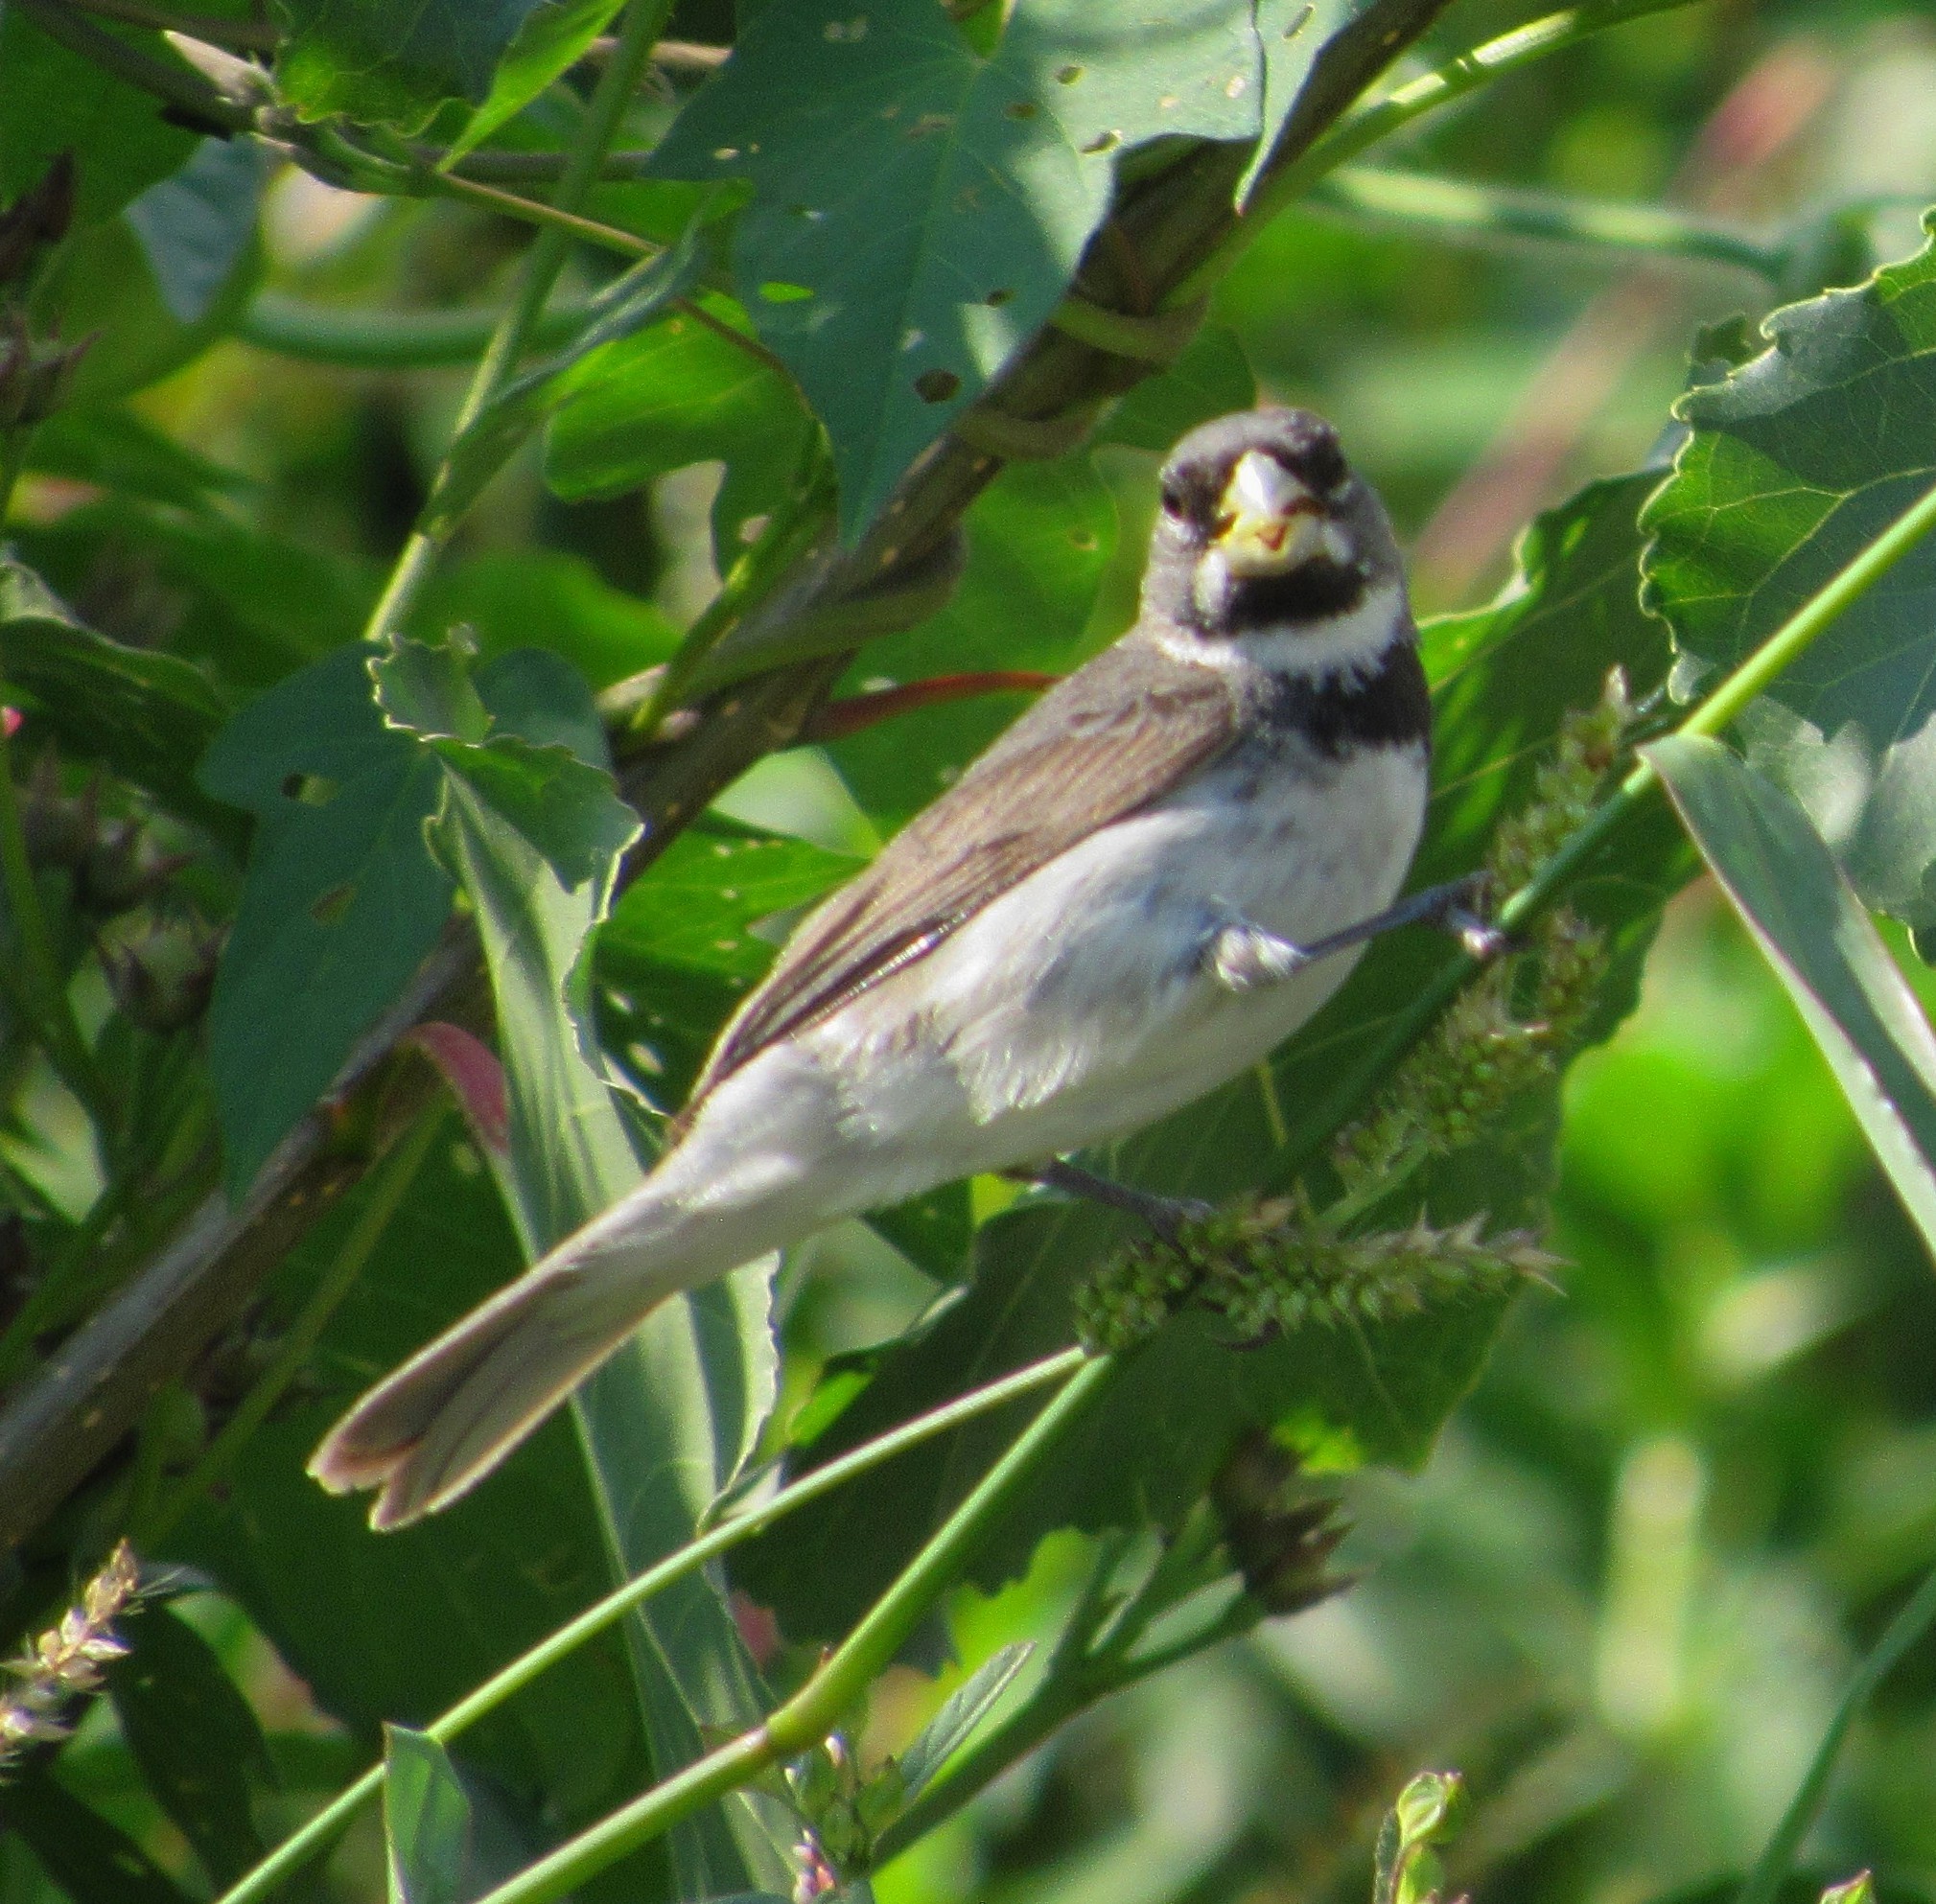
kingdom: Animalia
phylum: Chordata
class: Aves
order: Passeriformes
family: Thraupidae
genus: Sporophila
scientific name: Sporophila caerulescens
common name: Double-collared seedeater
